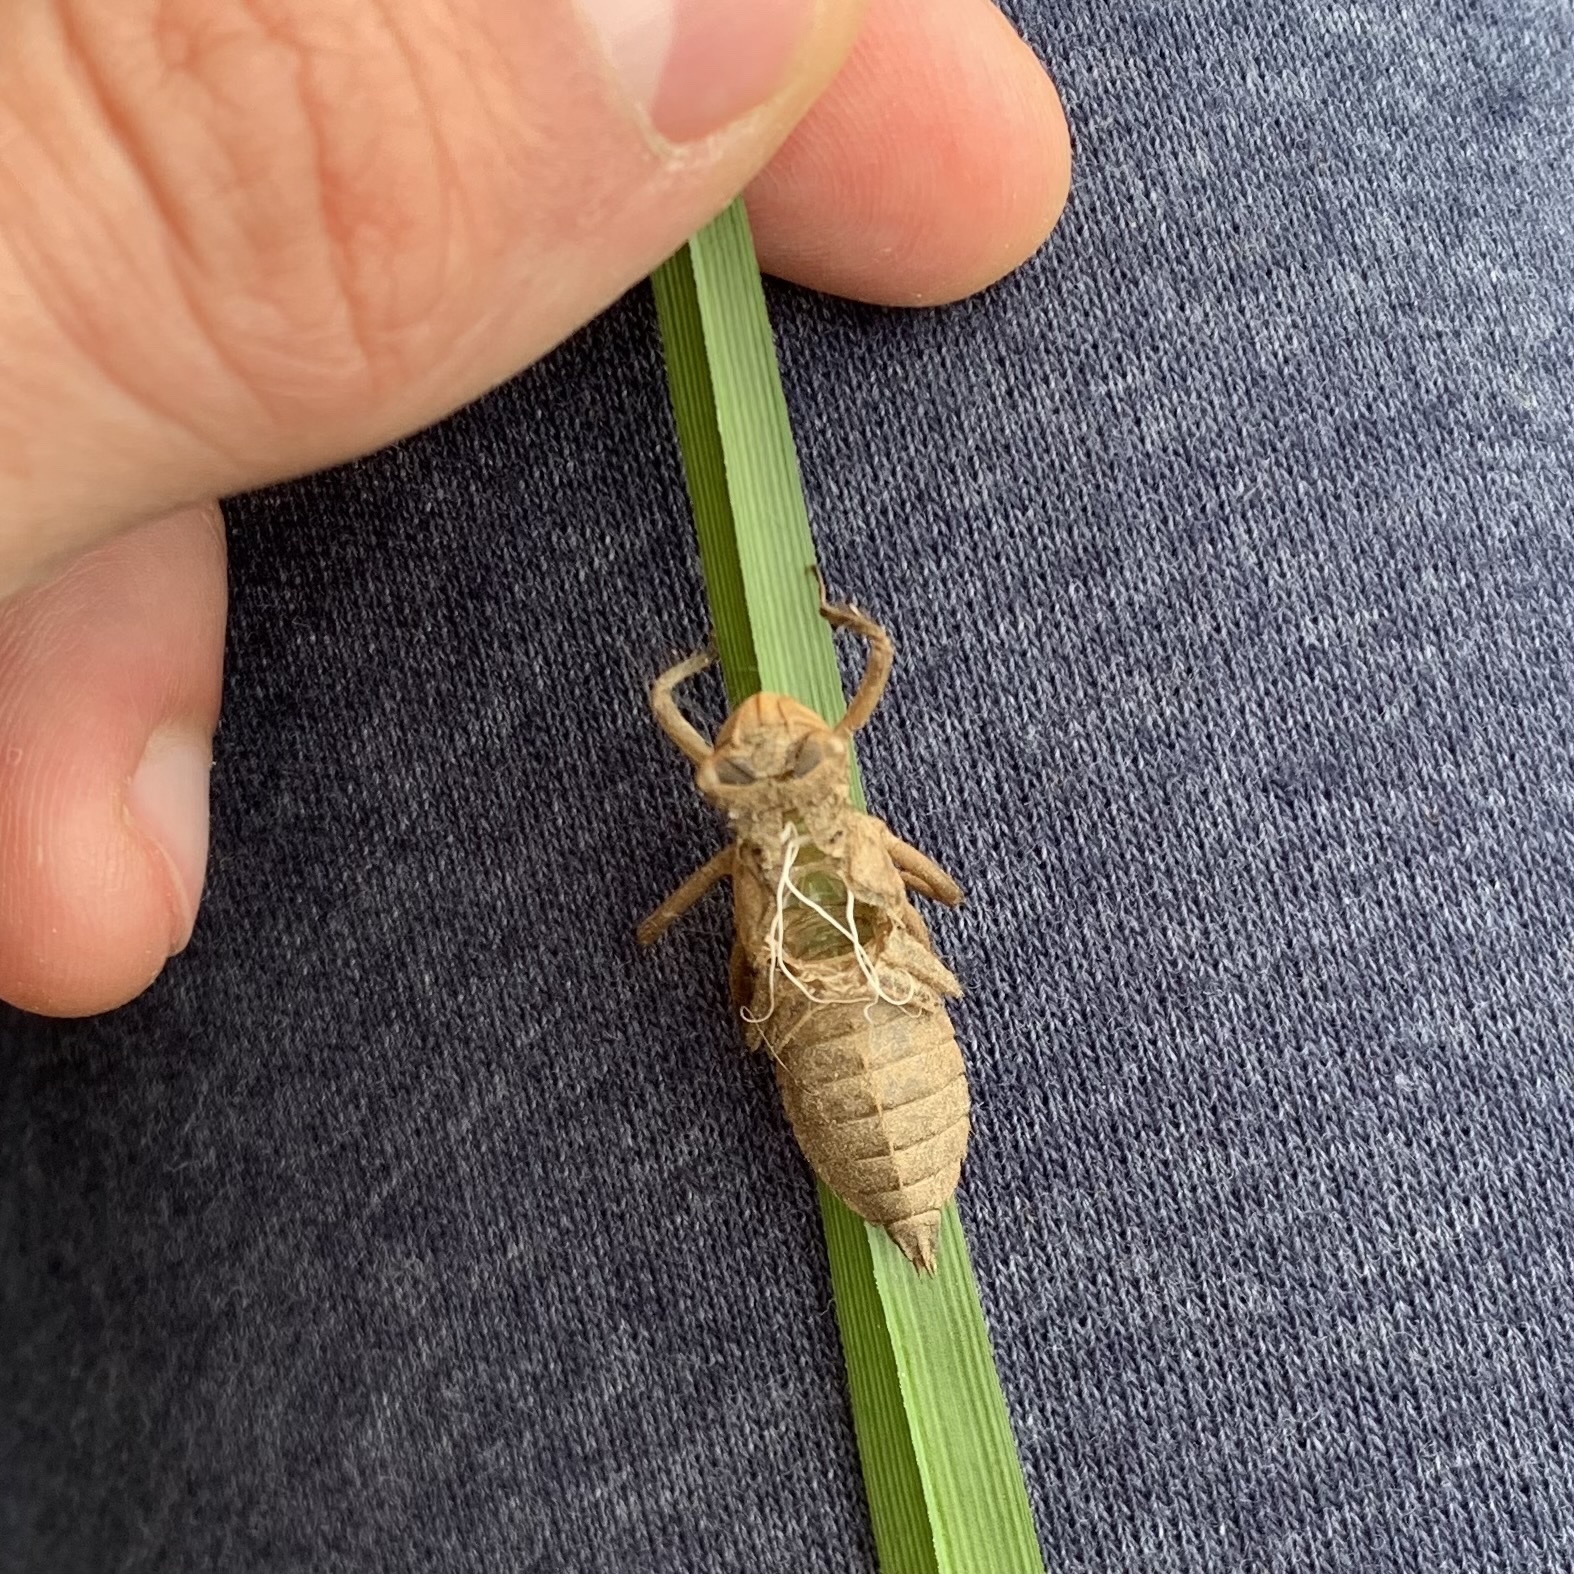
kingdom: Animalia
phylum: Arthropoda
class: Insecta
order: Odonata
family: Libellulidae
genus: Libellula
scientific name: Libellula
